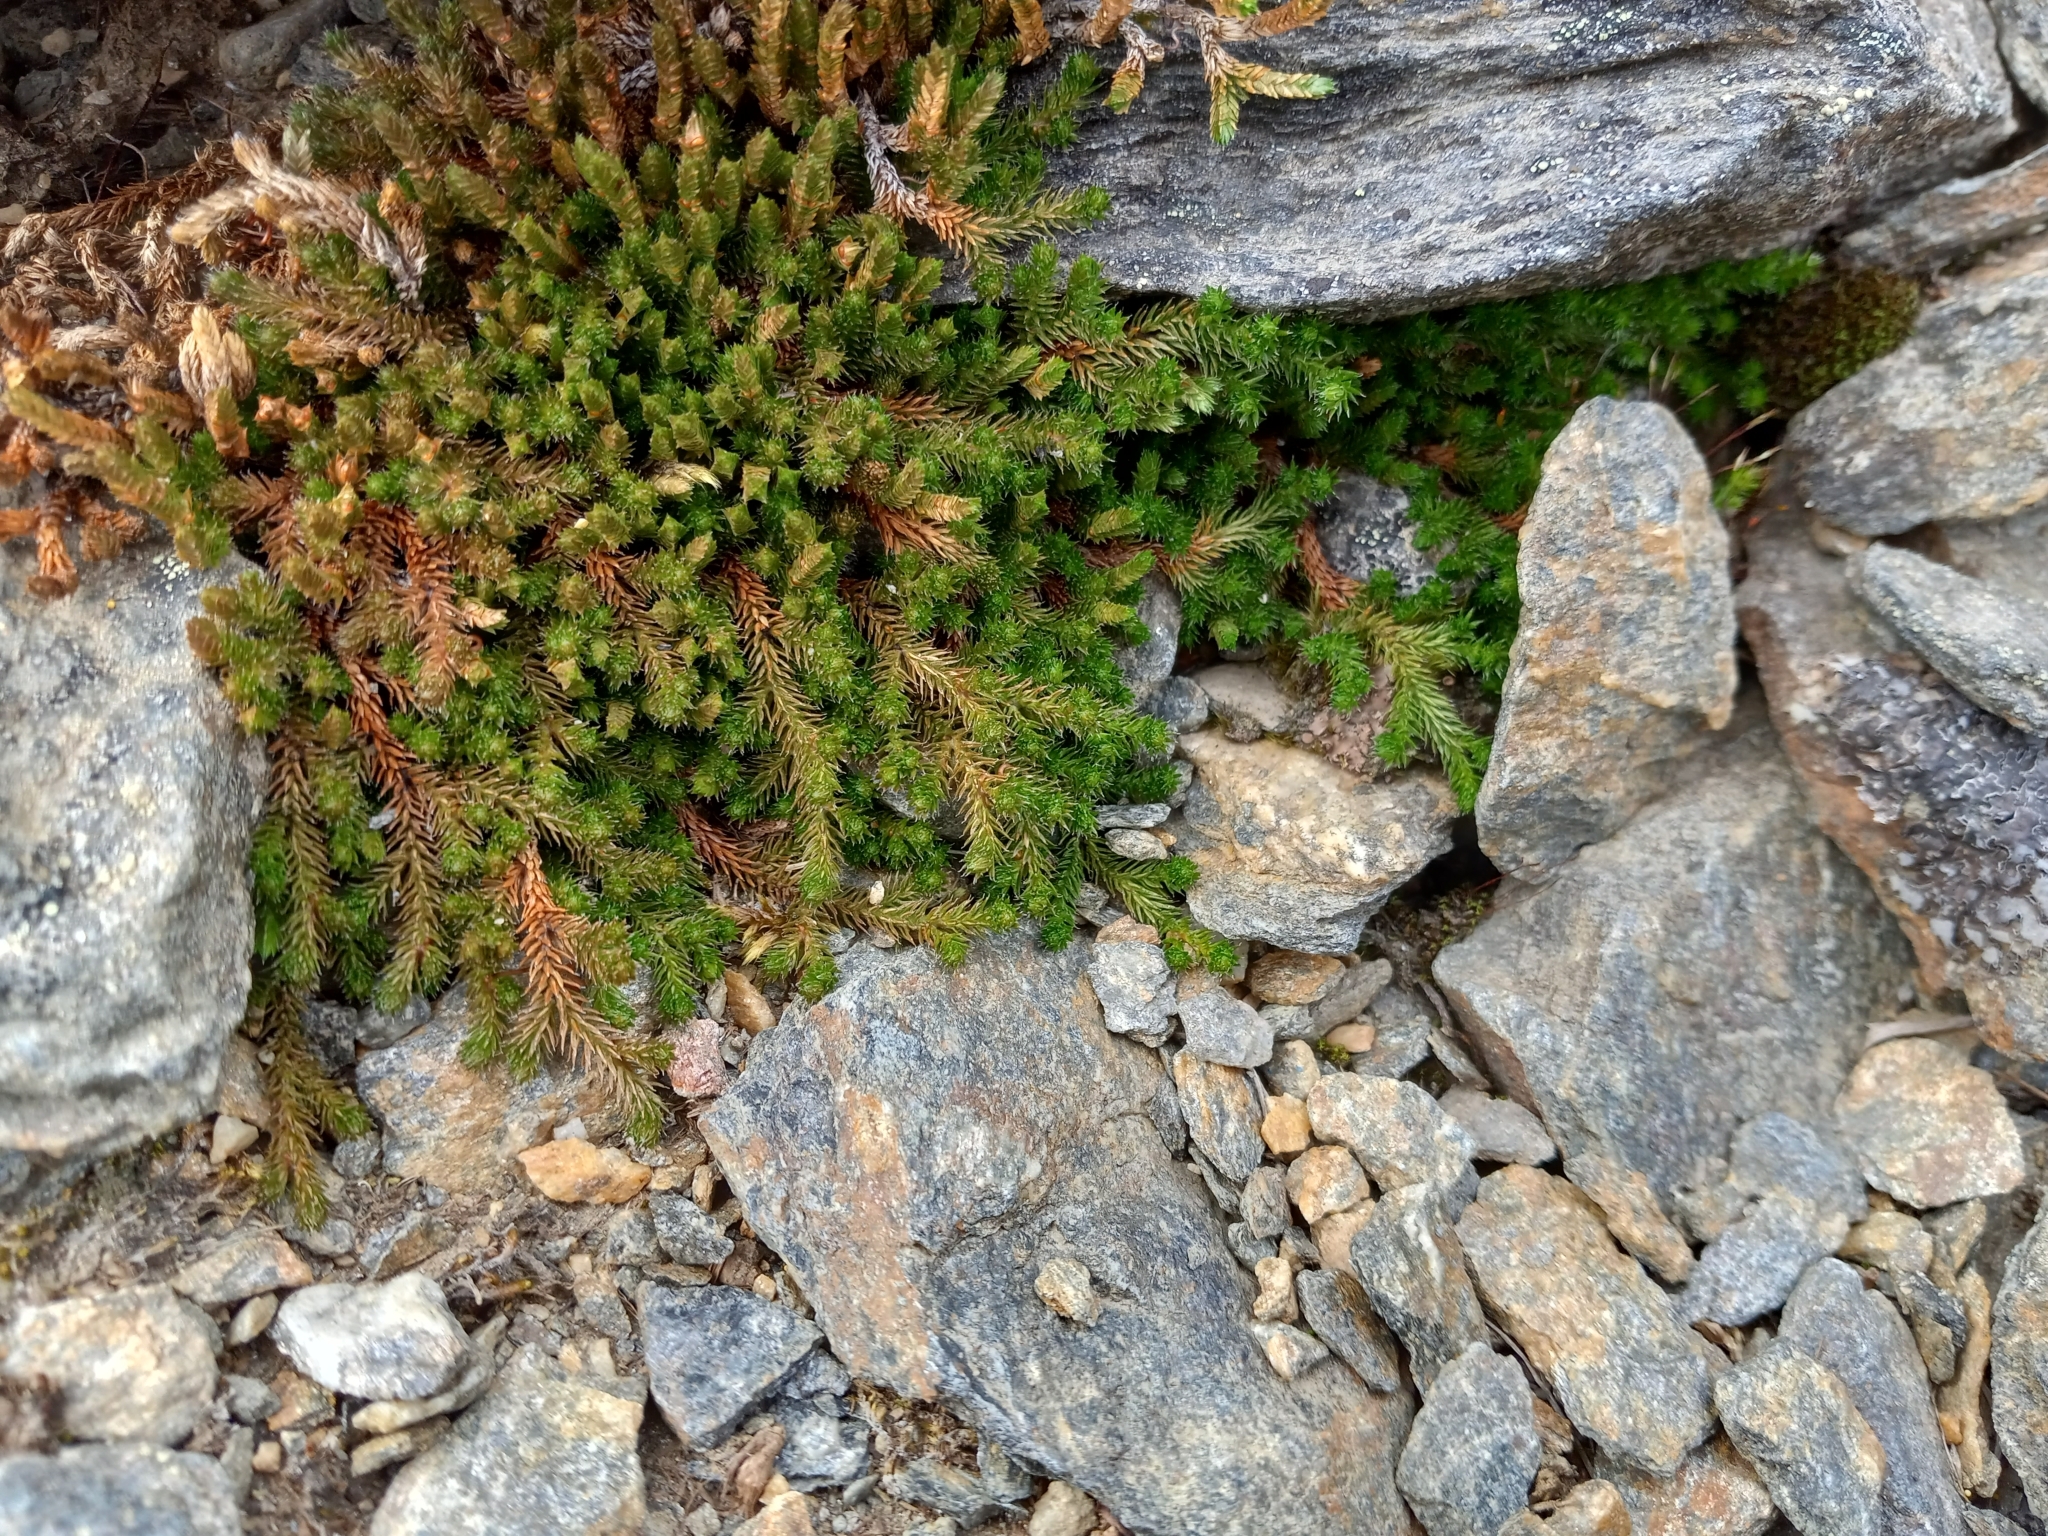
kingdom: Plantae
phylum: Tracheophyta
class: Lycopodiopsida
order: Selaginellales
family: Selaginellaceae
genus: Selaginella
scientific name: Selaginella sibirica
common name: Siberian spikemoss
